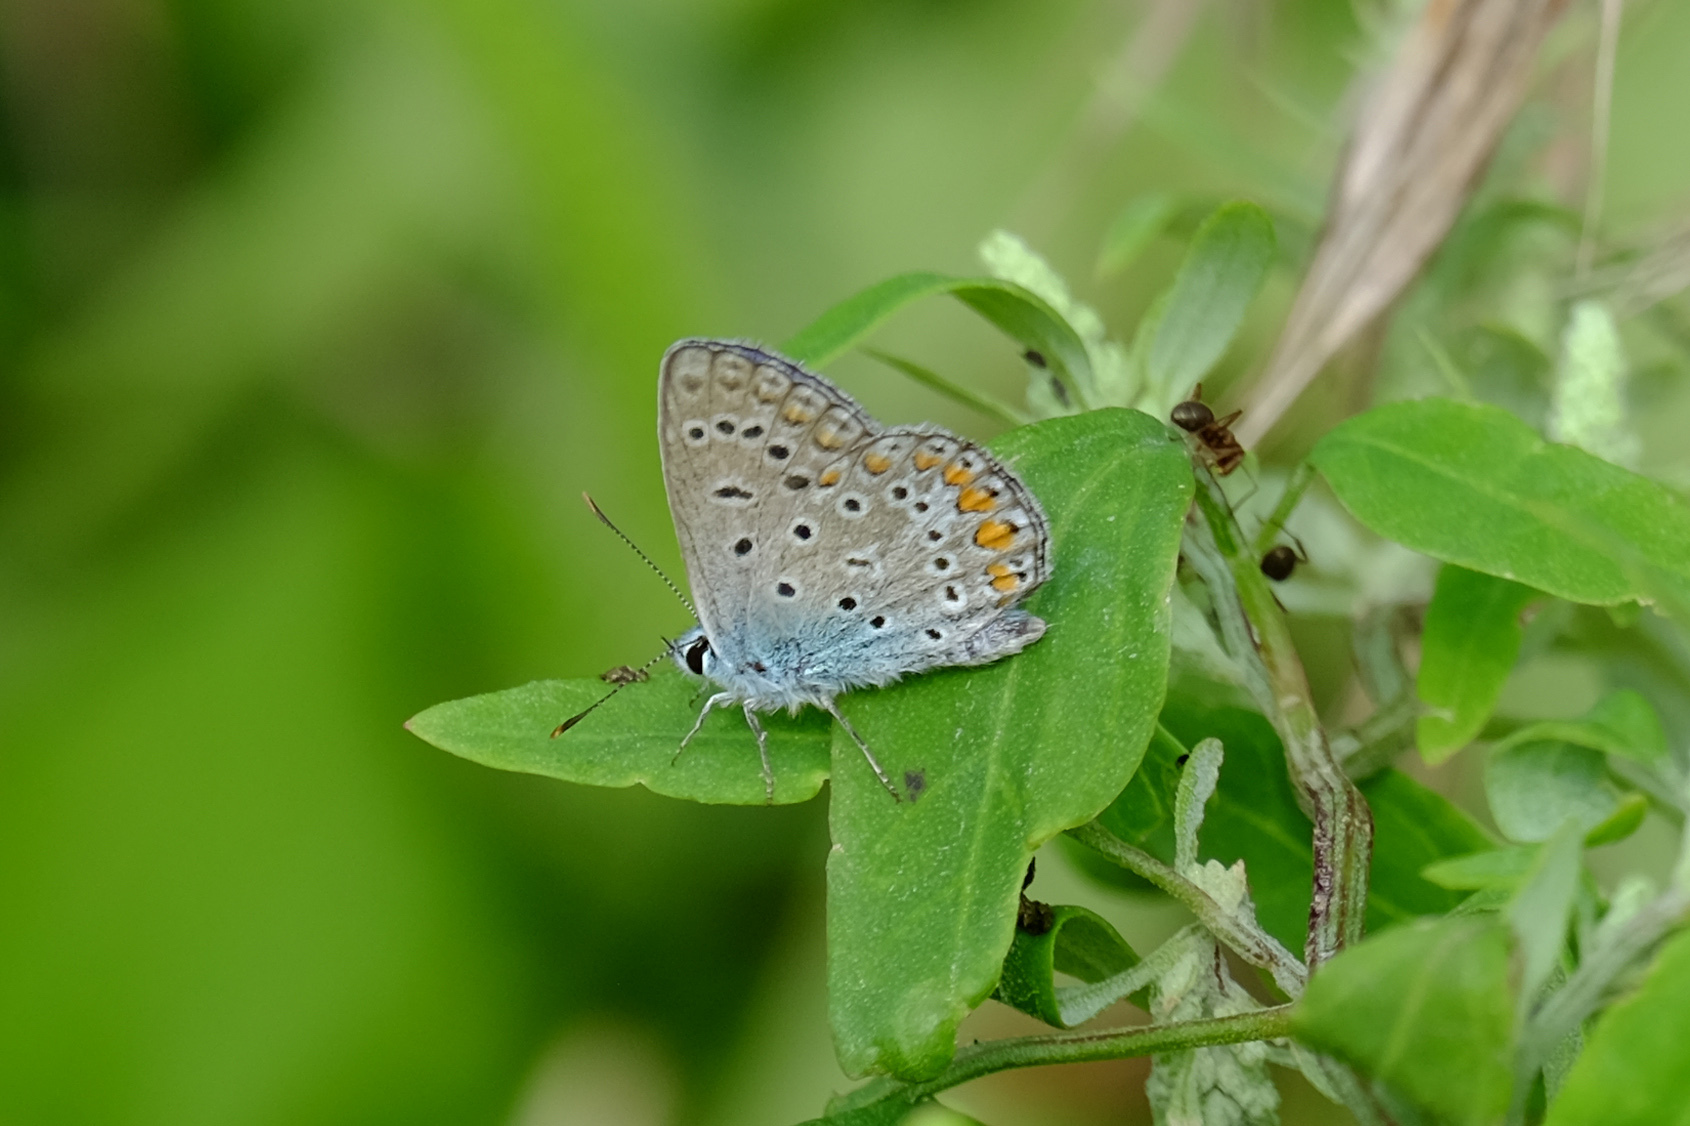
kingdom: Animalia
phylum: Arthropoda
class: Insecta
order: Lepidoptera
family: Lycaenidae
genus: Polyommatus
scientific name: Polyommatus icarus
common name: Common blue
